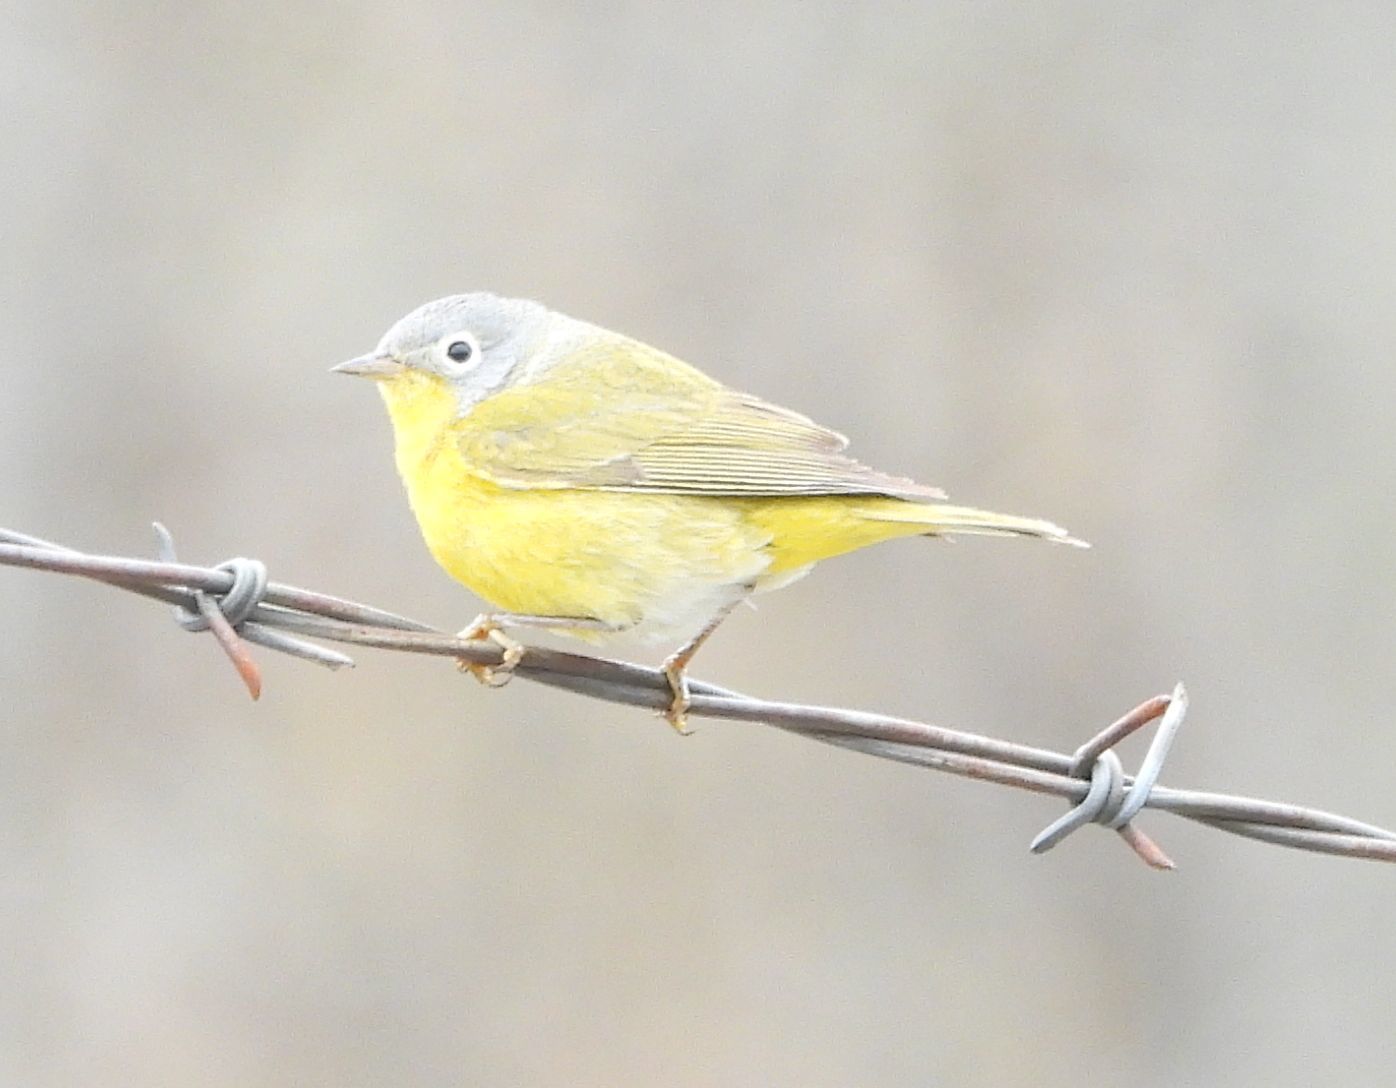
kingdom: Animalia
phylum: Chordata
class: Aves
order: Passeriformes
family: Parulidae
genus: Leiothlypis
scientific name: Leiothlypis ruficapilla
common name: Nashville warbler
